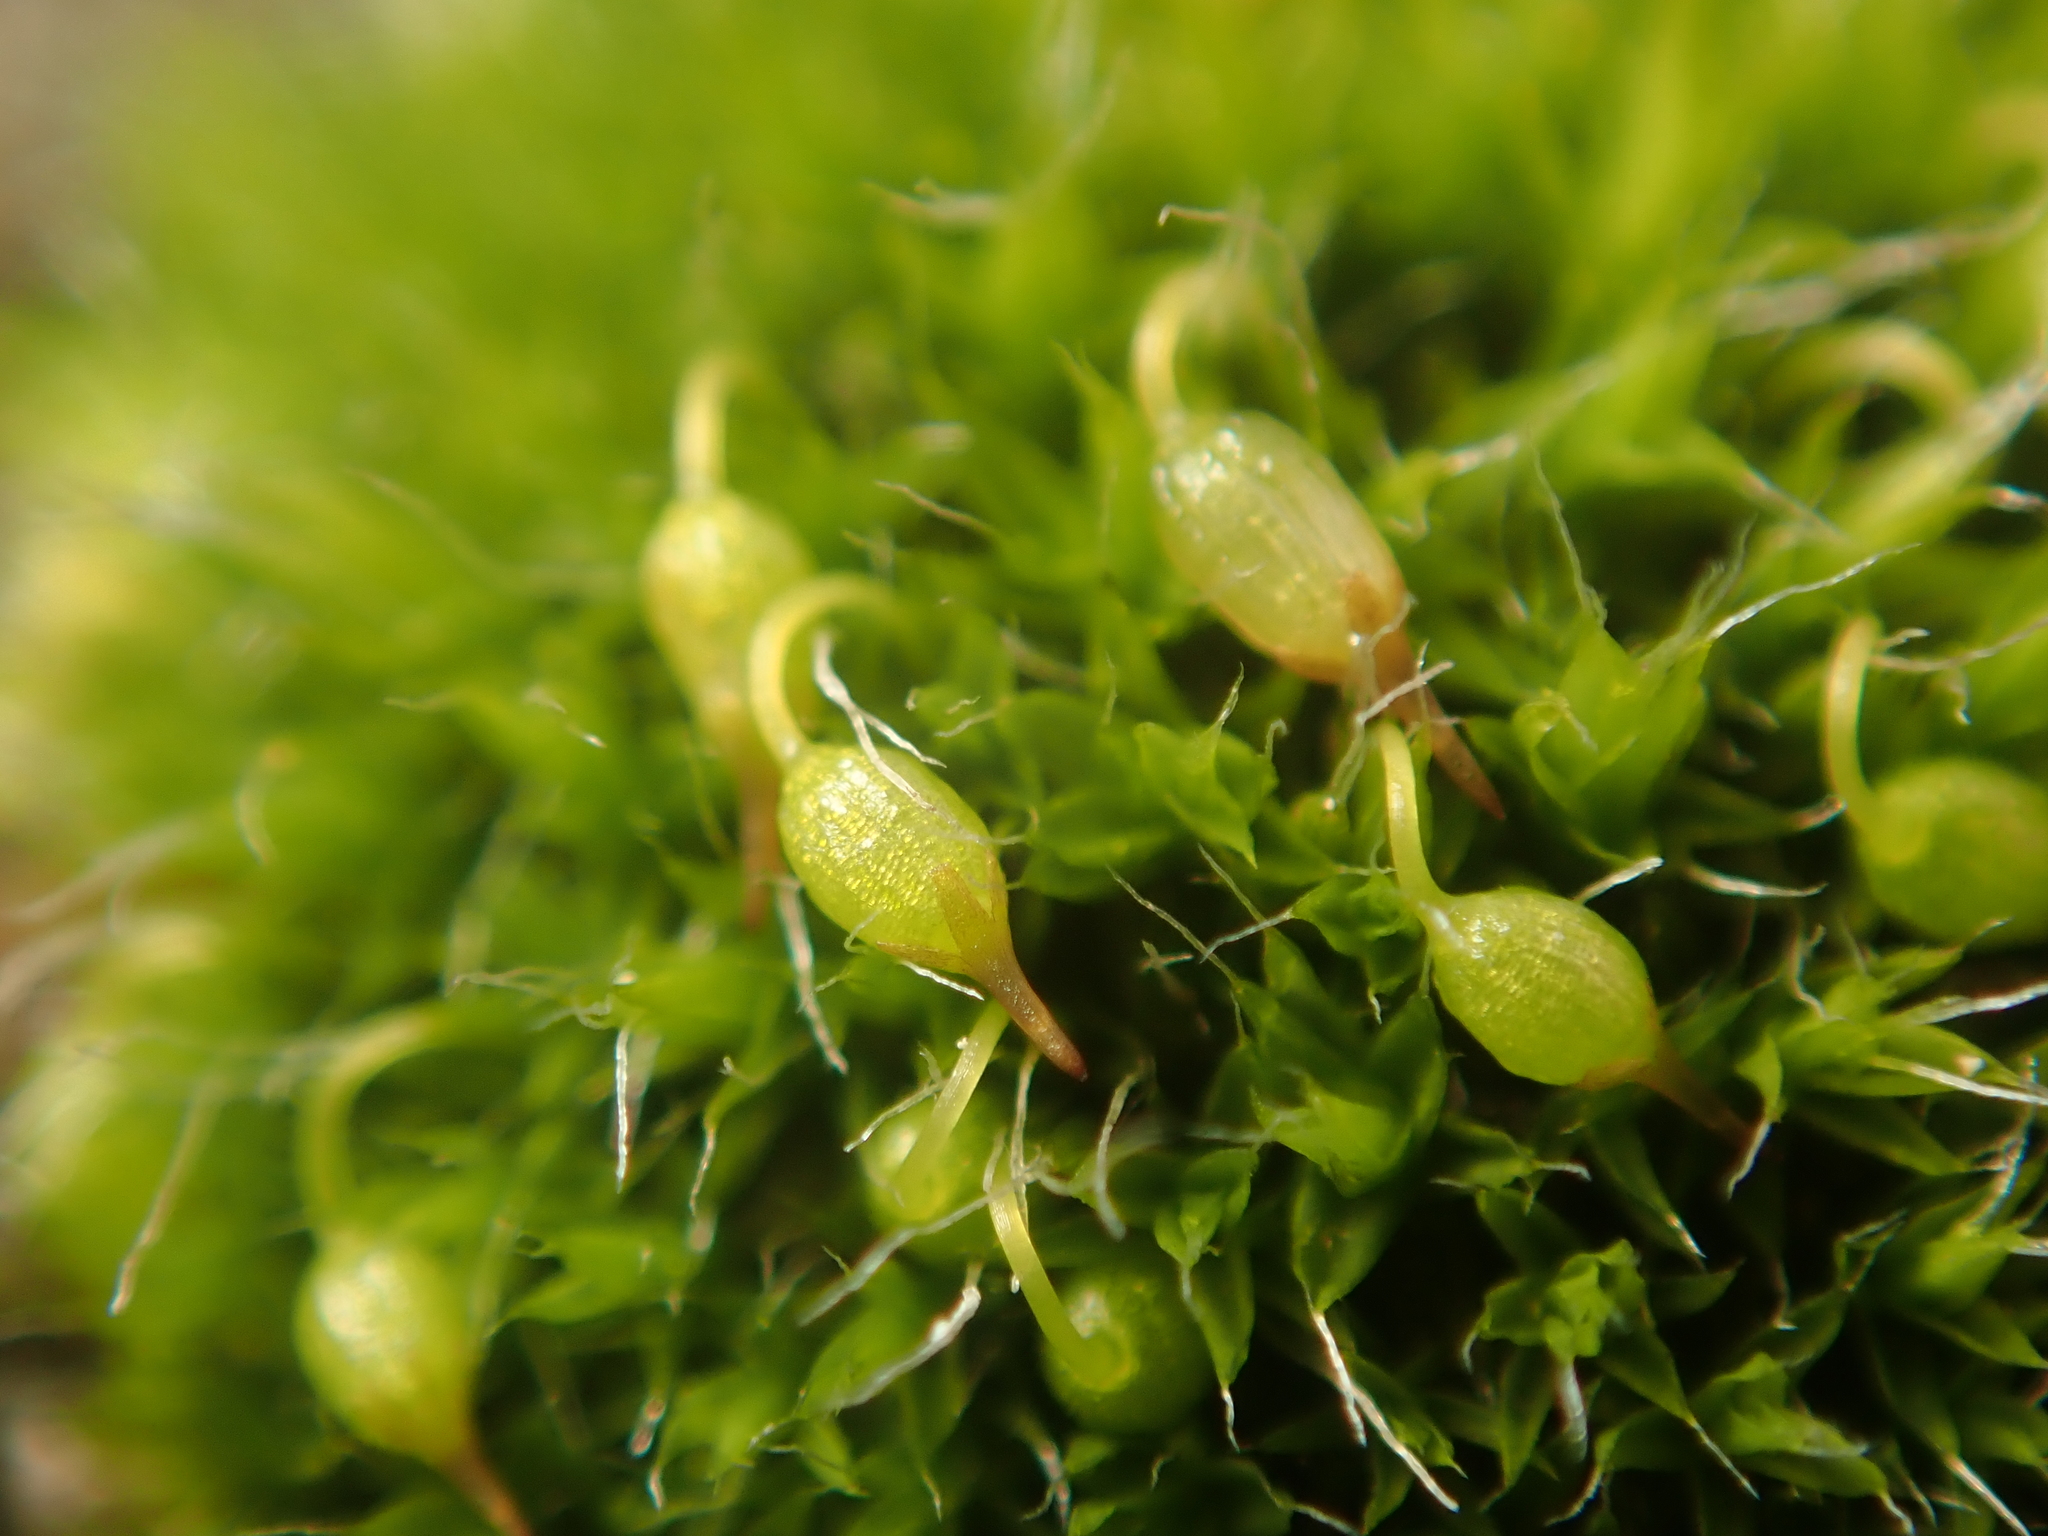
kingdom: Plantae
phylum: Bryophyta
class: Bryopsida
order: Grimmiales
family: Grimmiaceae
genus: Grimmia
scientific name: Grimmia pulvinata
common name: Grey-cushioned grimmia
